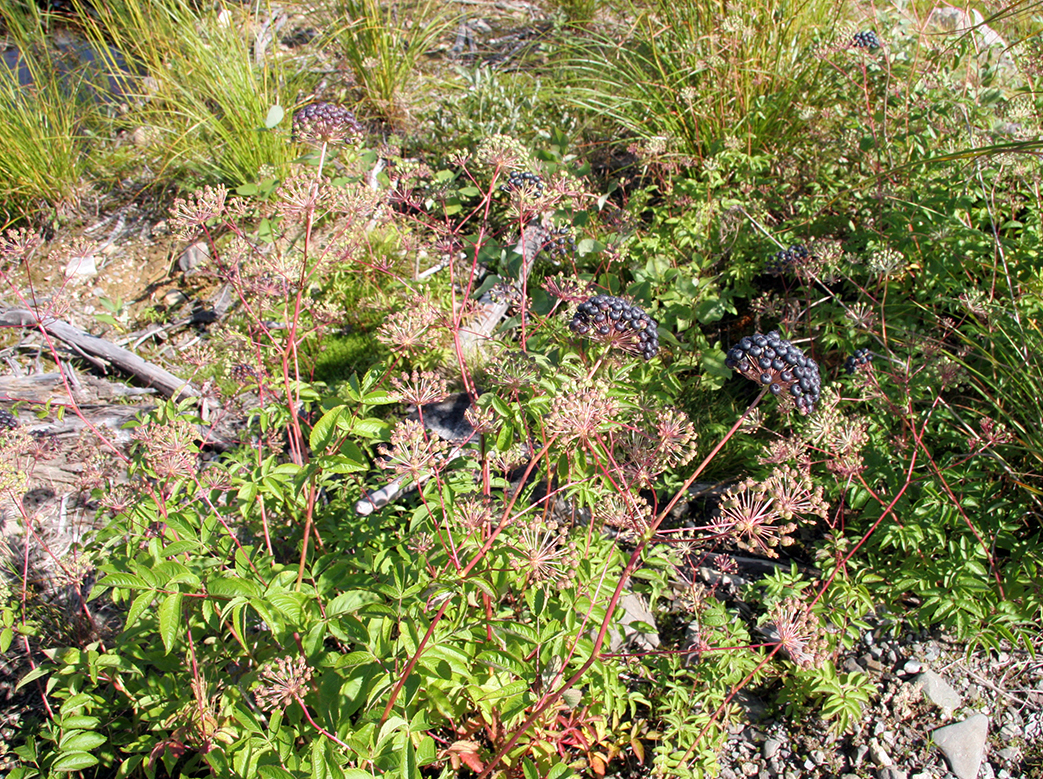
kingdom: Plantae
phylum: Tracheophyta
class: Magnoliopsida
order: Apiales
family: Araliaceae
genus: Aralia
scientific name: Aralia hispida
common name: Bristly sarsaparilla
